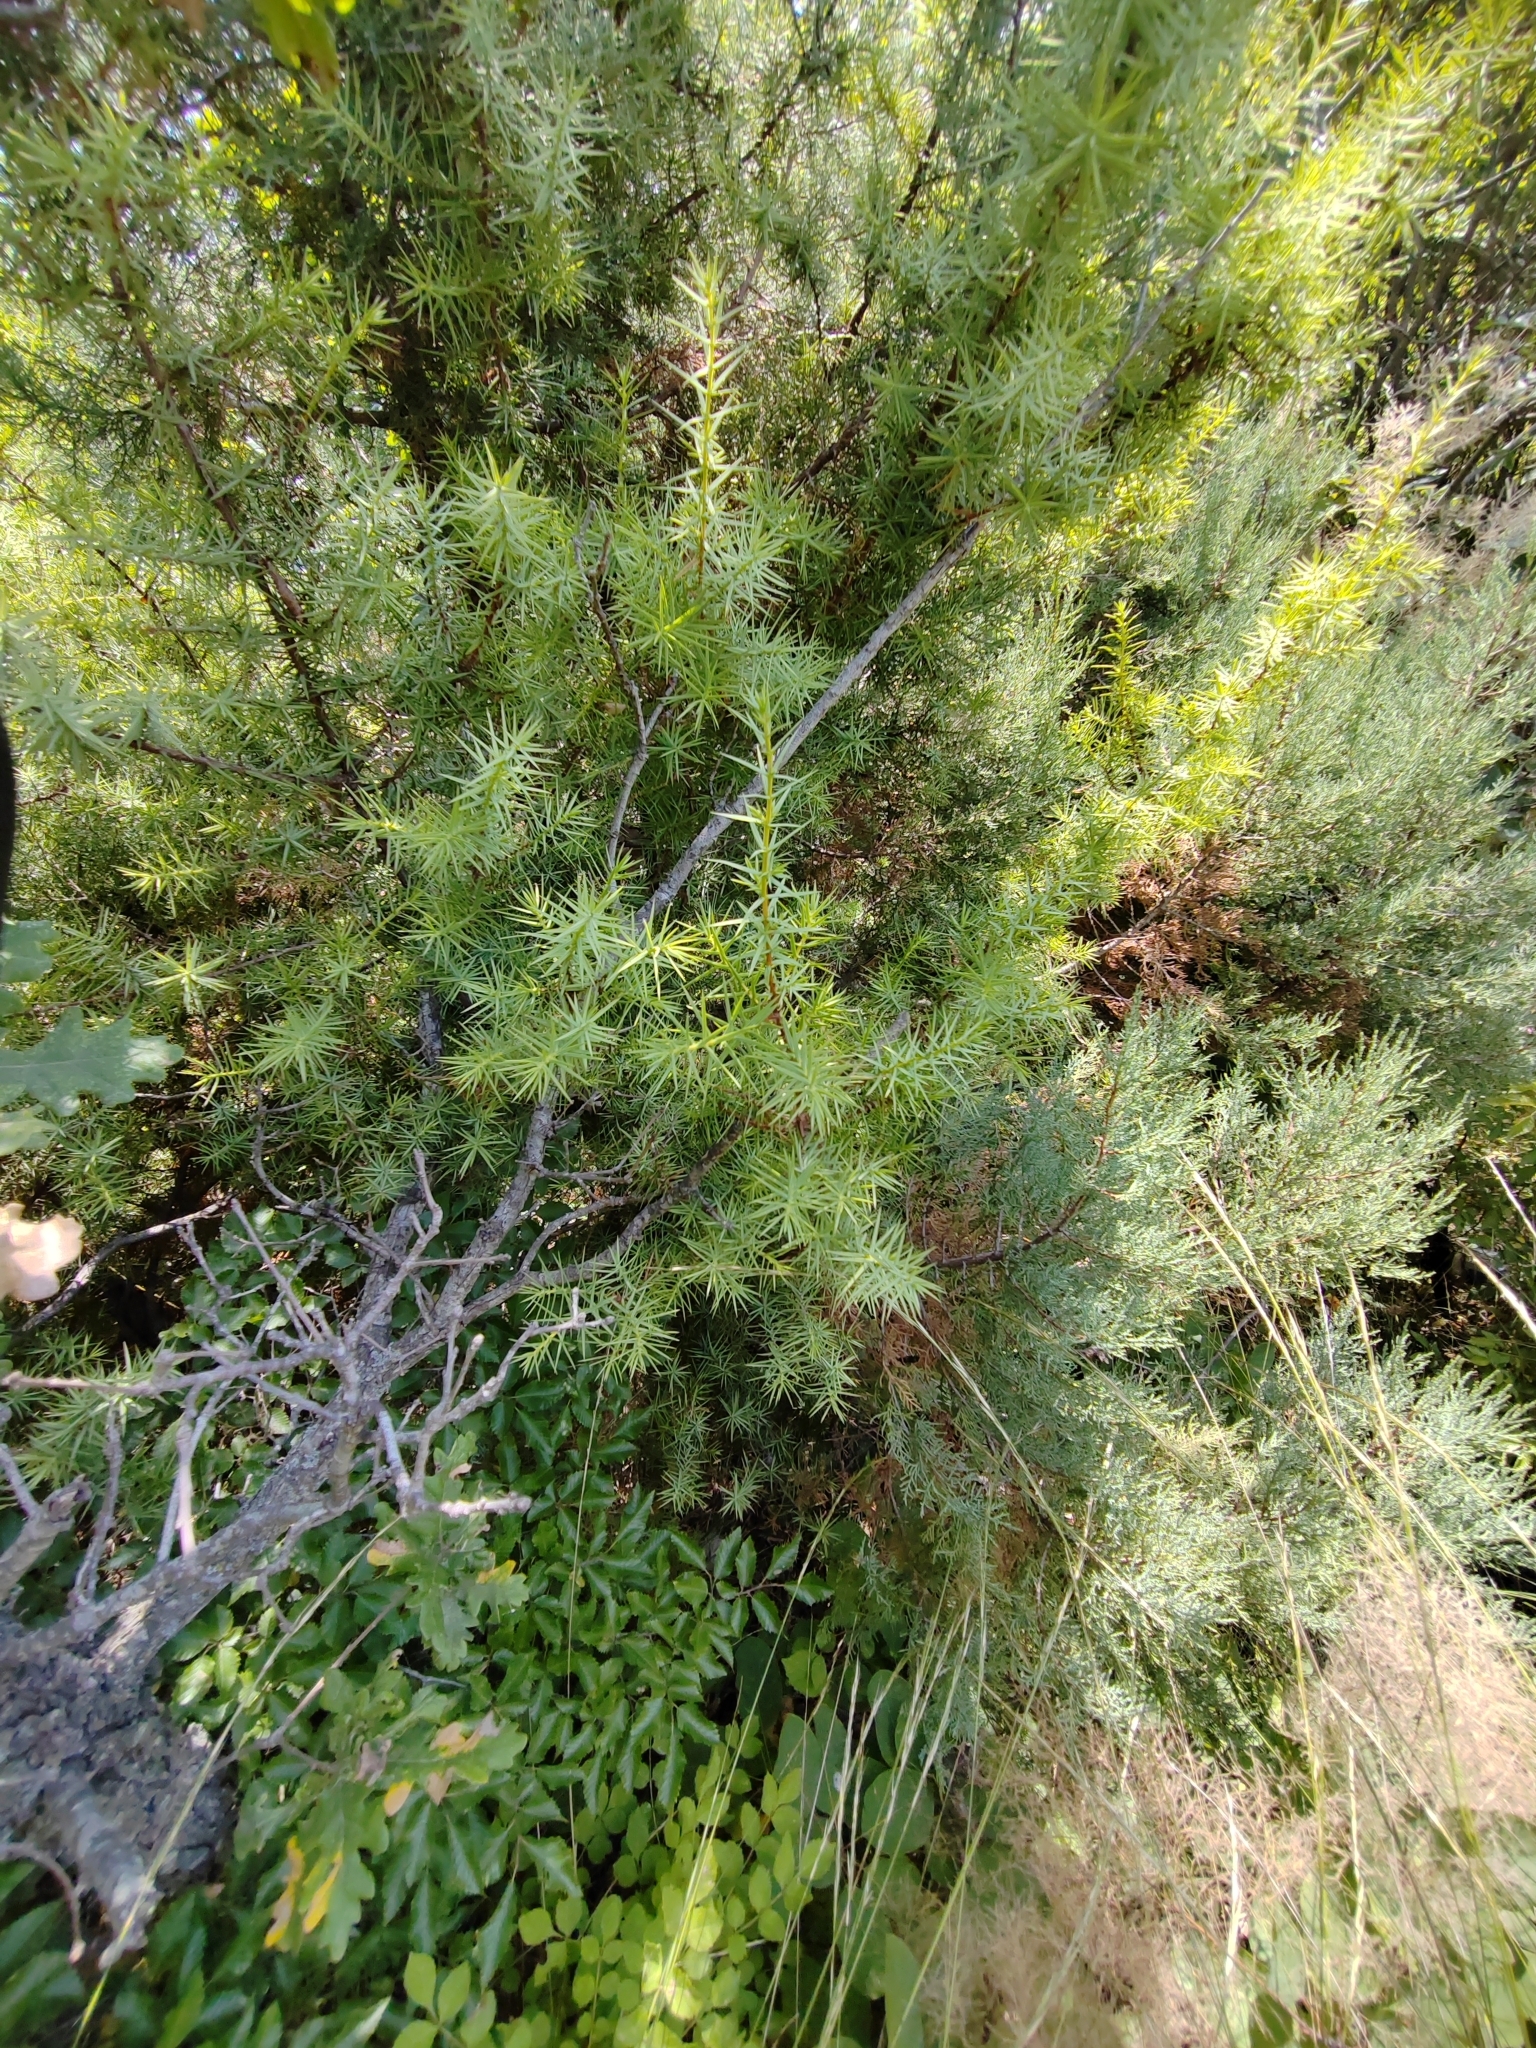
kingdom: Plantae
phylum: Tracheophyta
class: Pinopsida
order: Pinales
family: Cupressaceae
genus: Juniperus
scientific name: Juniperus oxycedrus
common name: Prickly juniper
